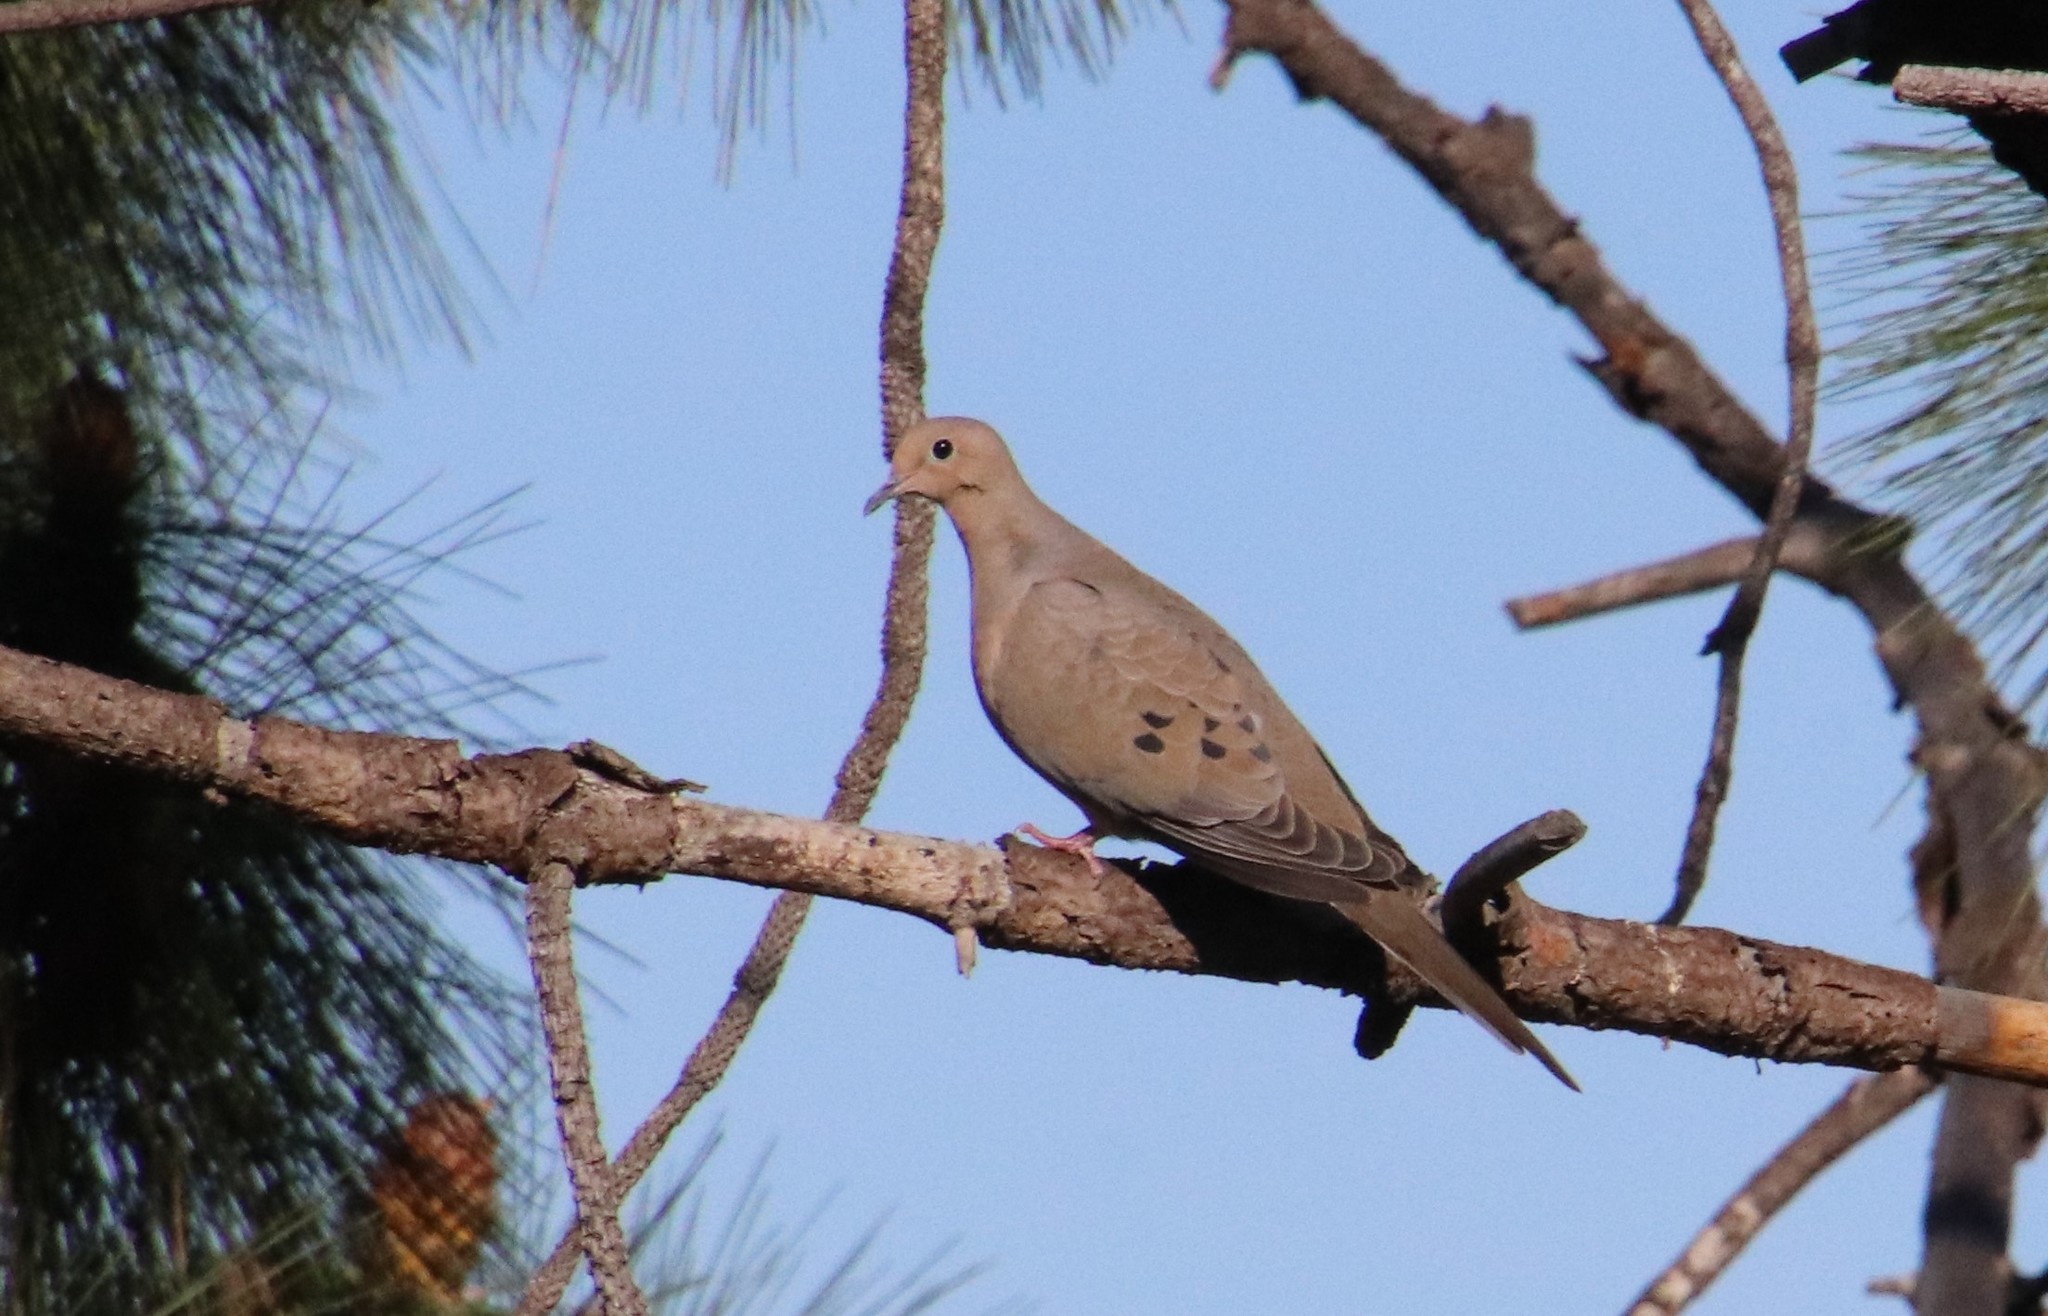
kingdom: Animalia
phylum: Chordata
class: Aves
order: Columbiformes
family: Columbidae
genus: Zenaida
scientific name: Zenaida macroura
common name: Mourning dove
